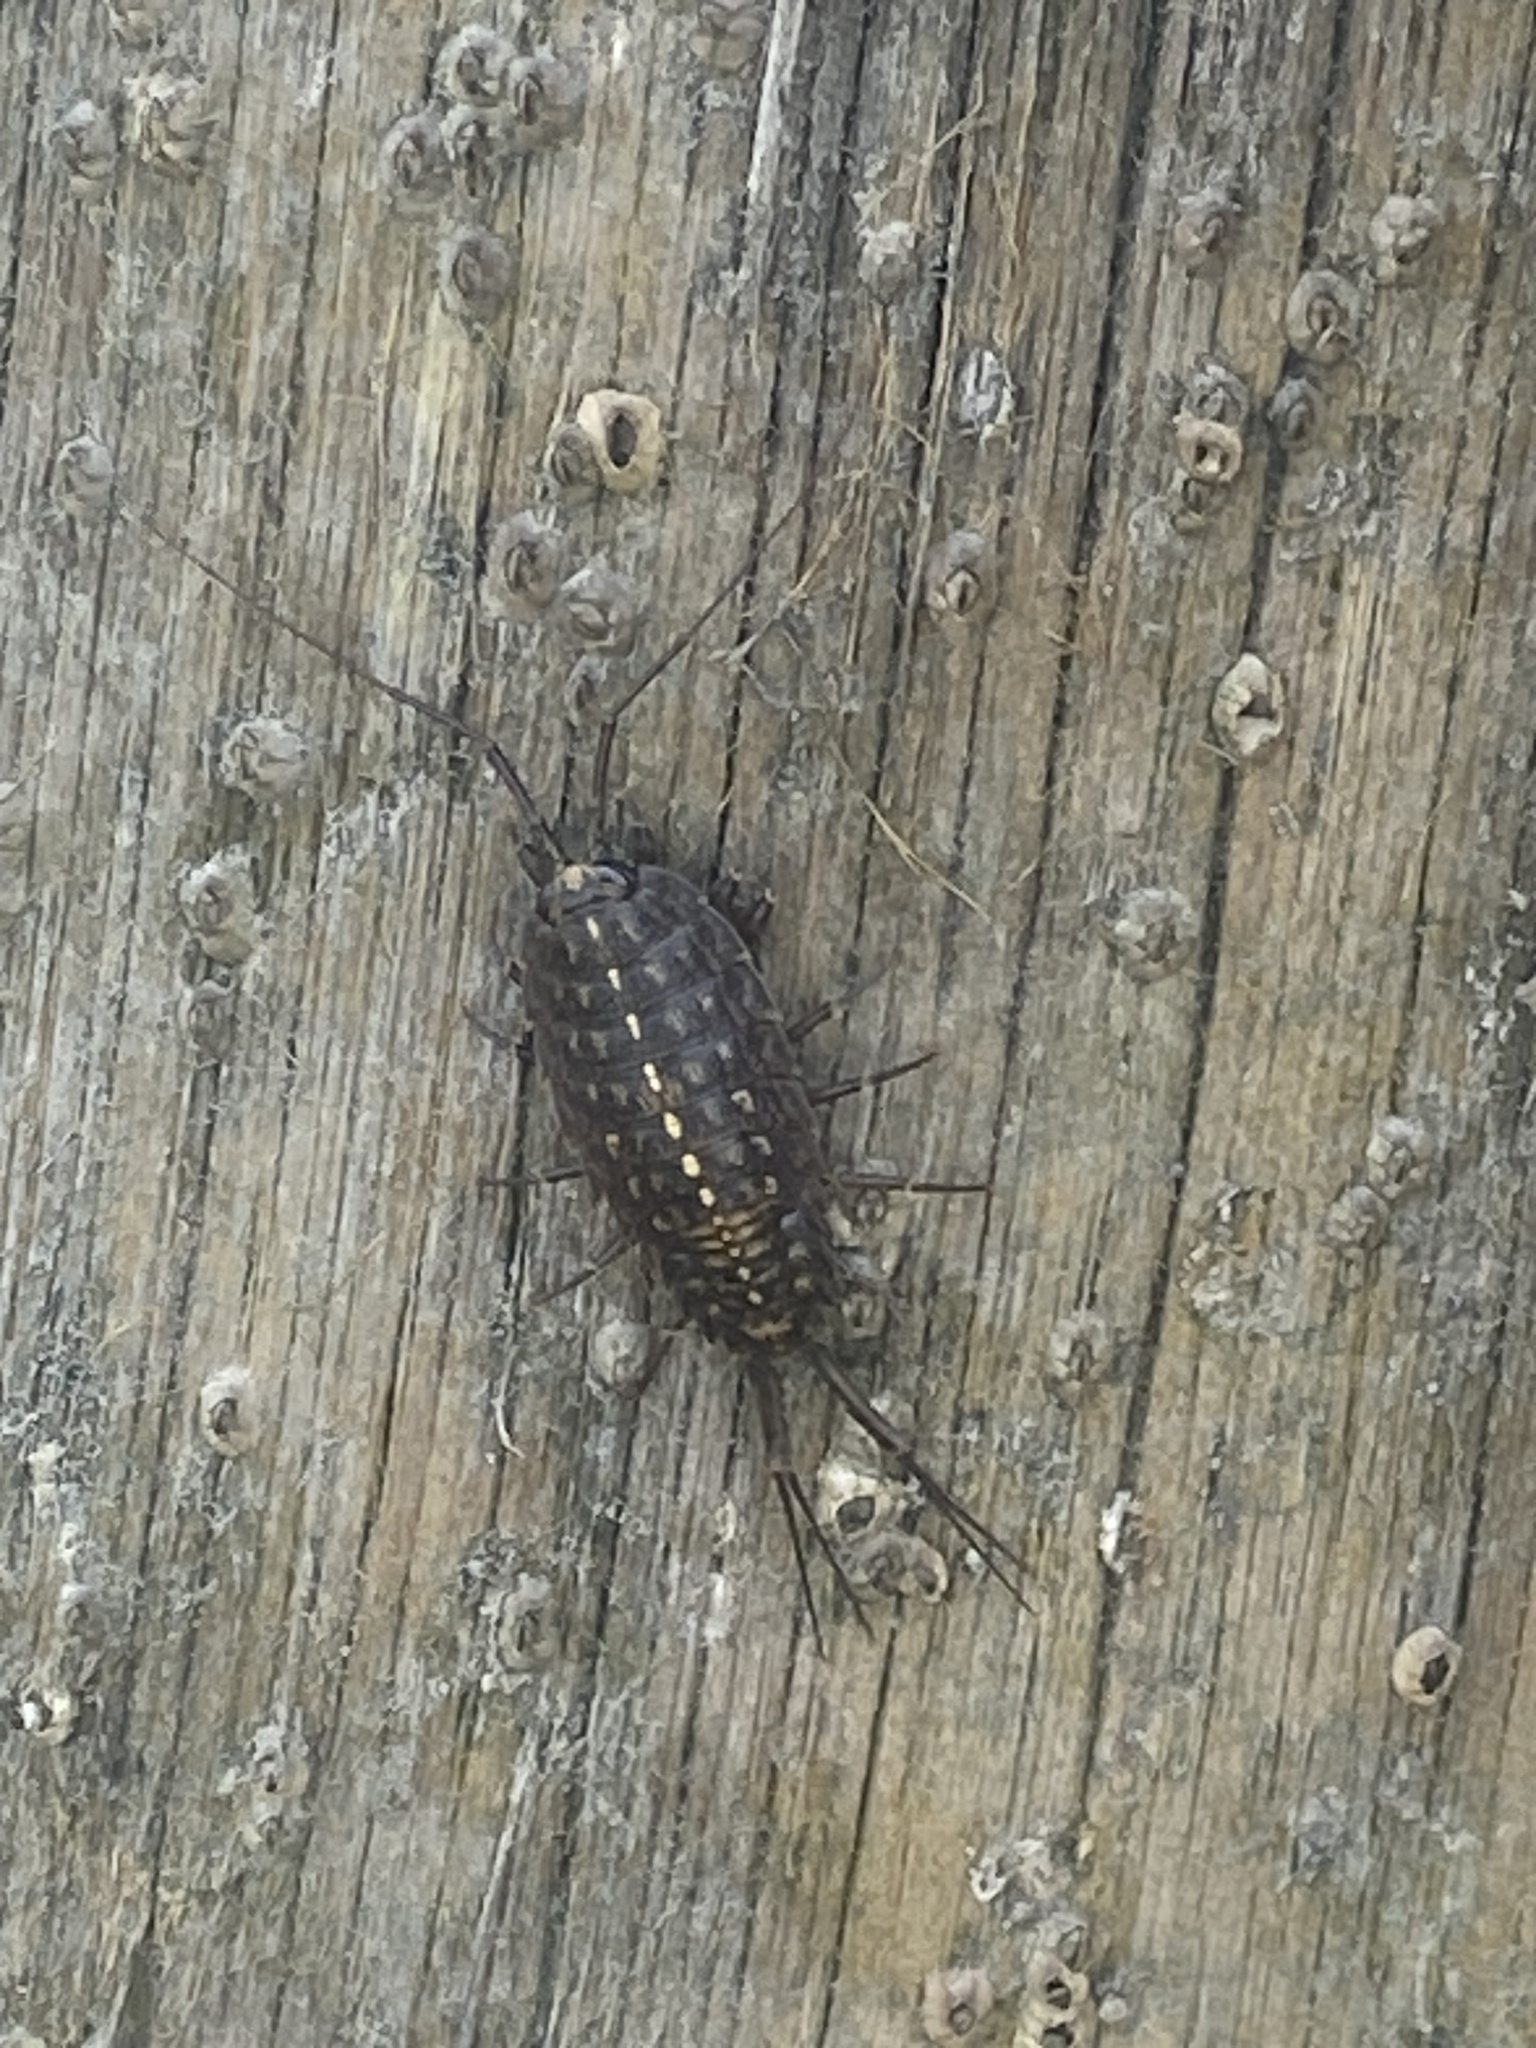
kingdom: Animalia
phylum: Arthropoda
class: Malacostraca
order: Isopoda
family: Ligiidae
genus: Ligia
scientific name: Ligia exotica
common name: Wharf roach
